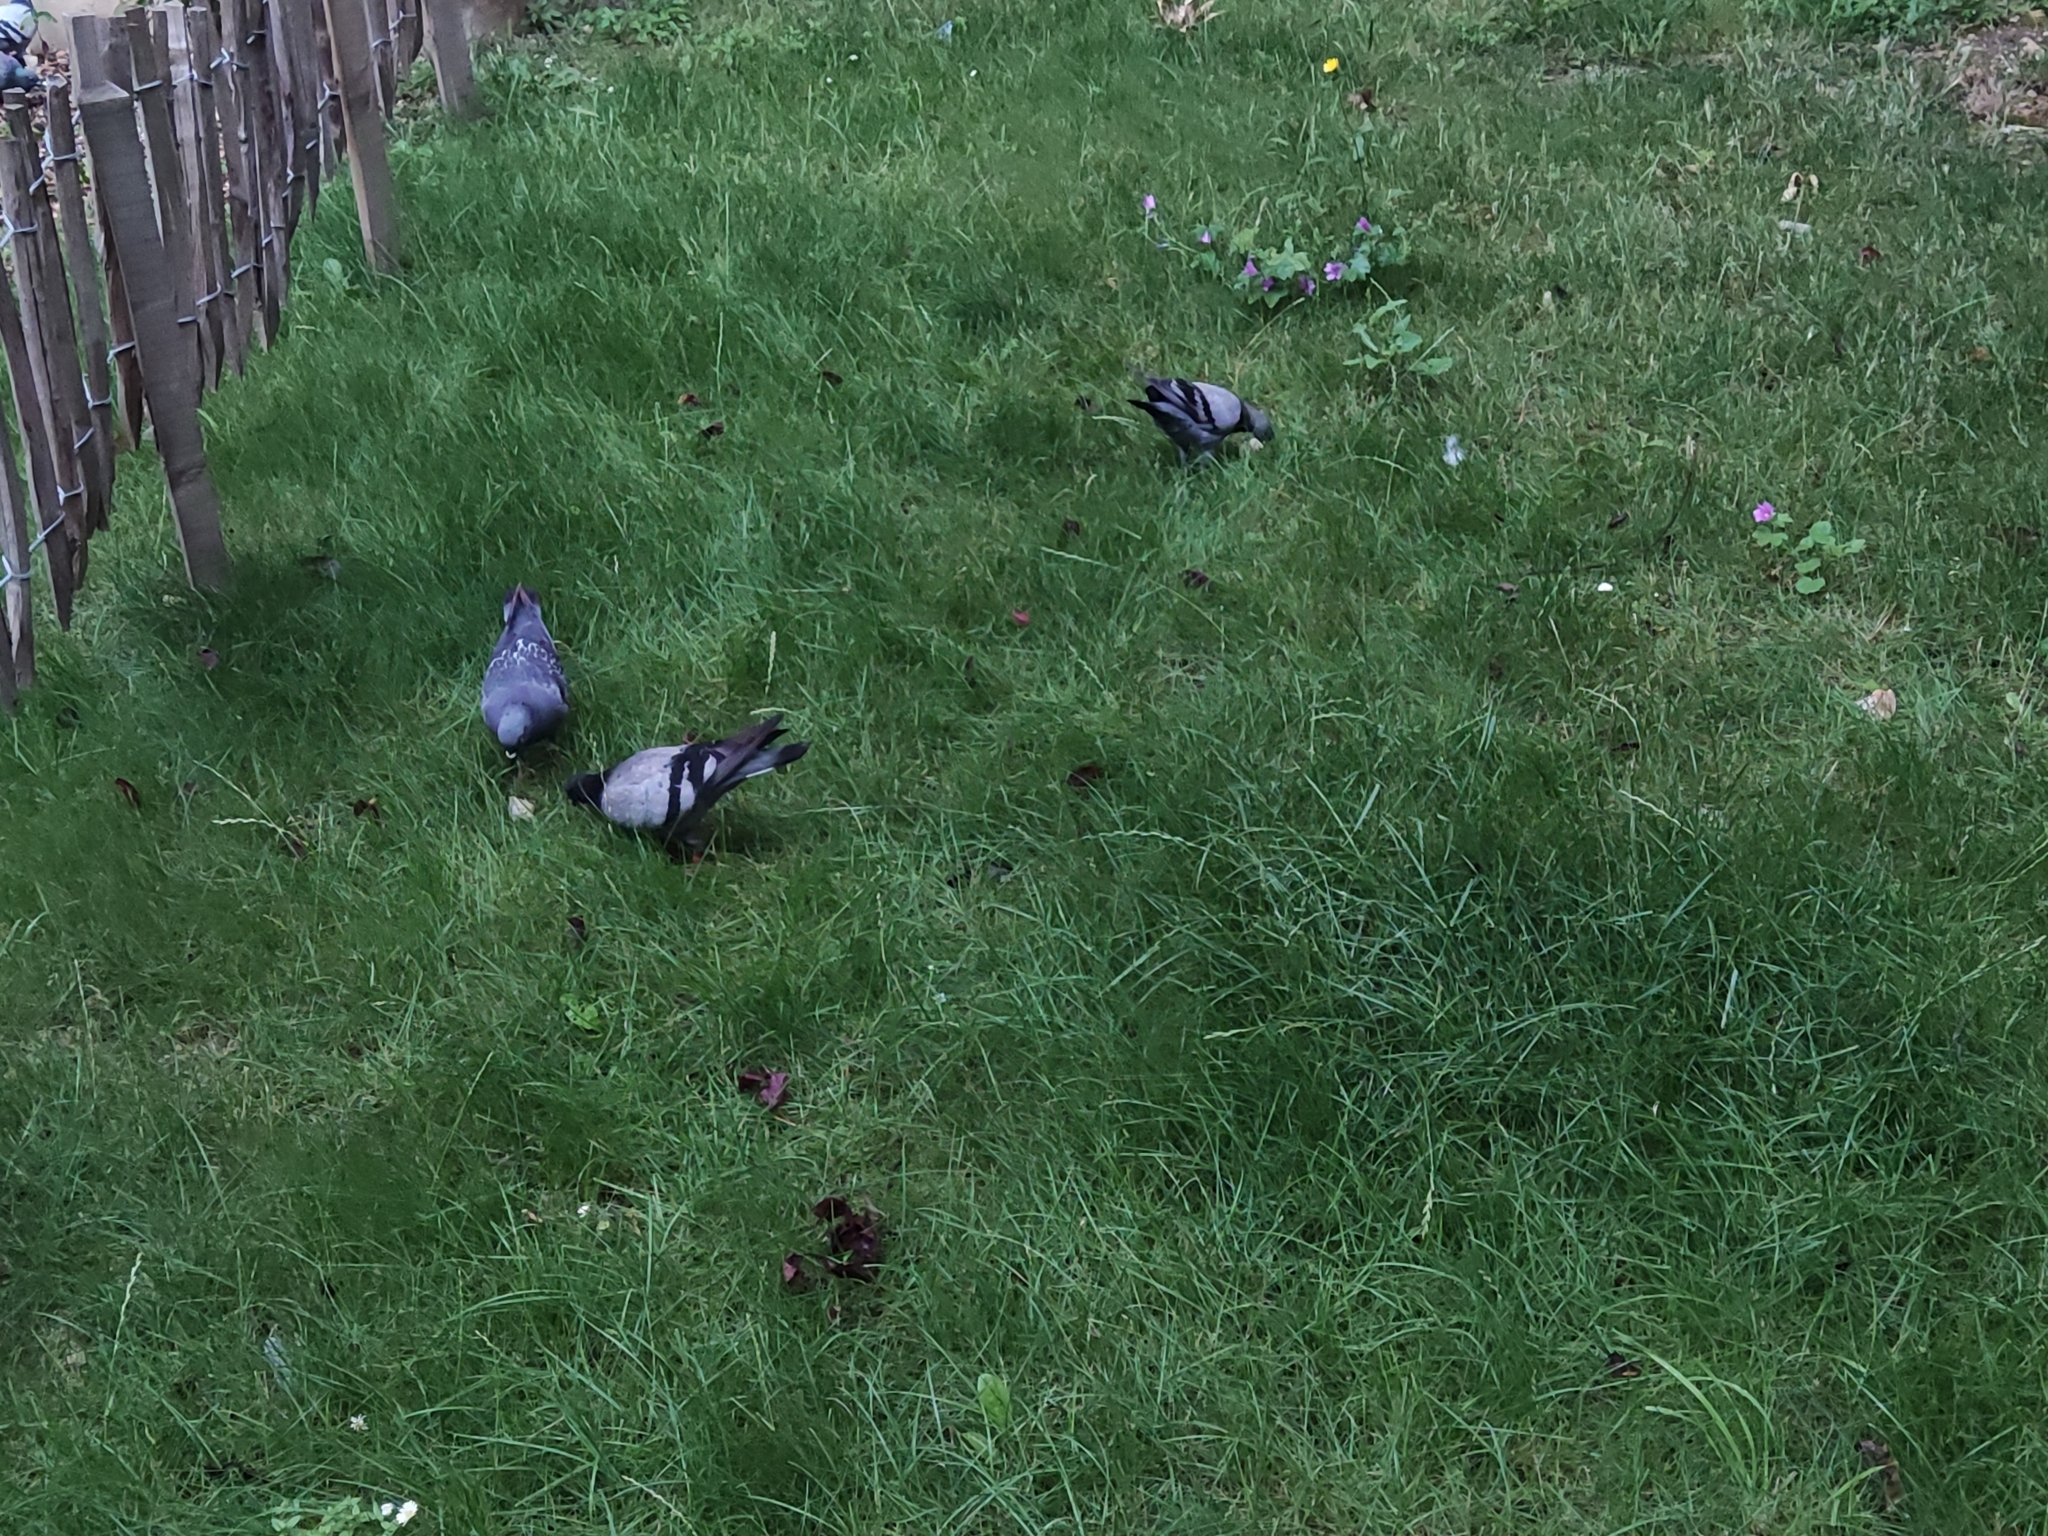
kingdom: Animalia
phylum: Chordata
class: Aves
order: Columbiformes
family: Columbidae
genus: Columba
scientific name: Columba livia
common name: Rock pigeon
